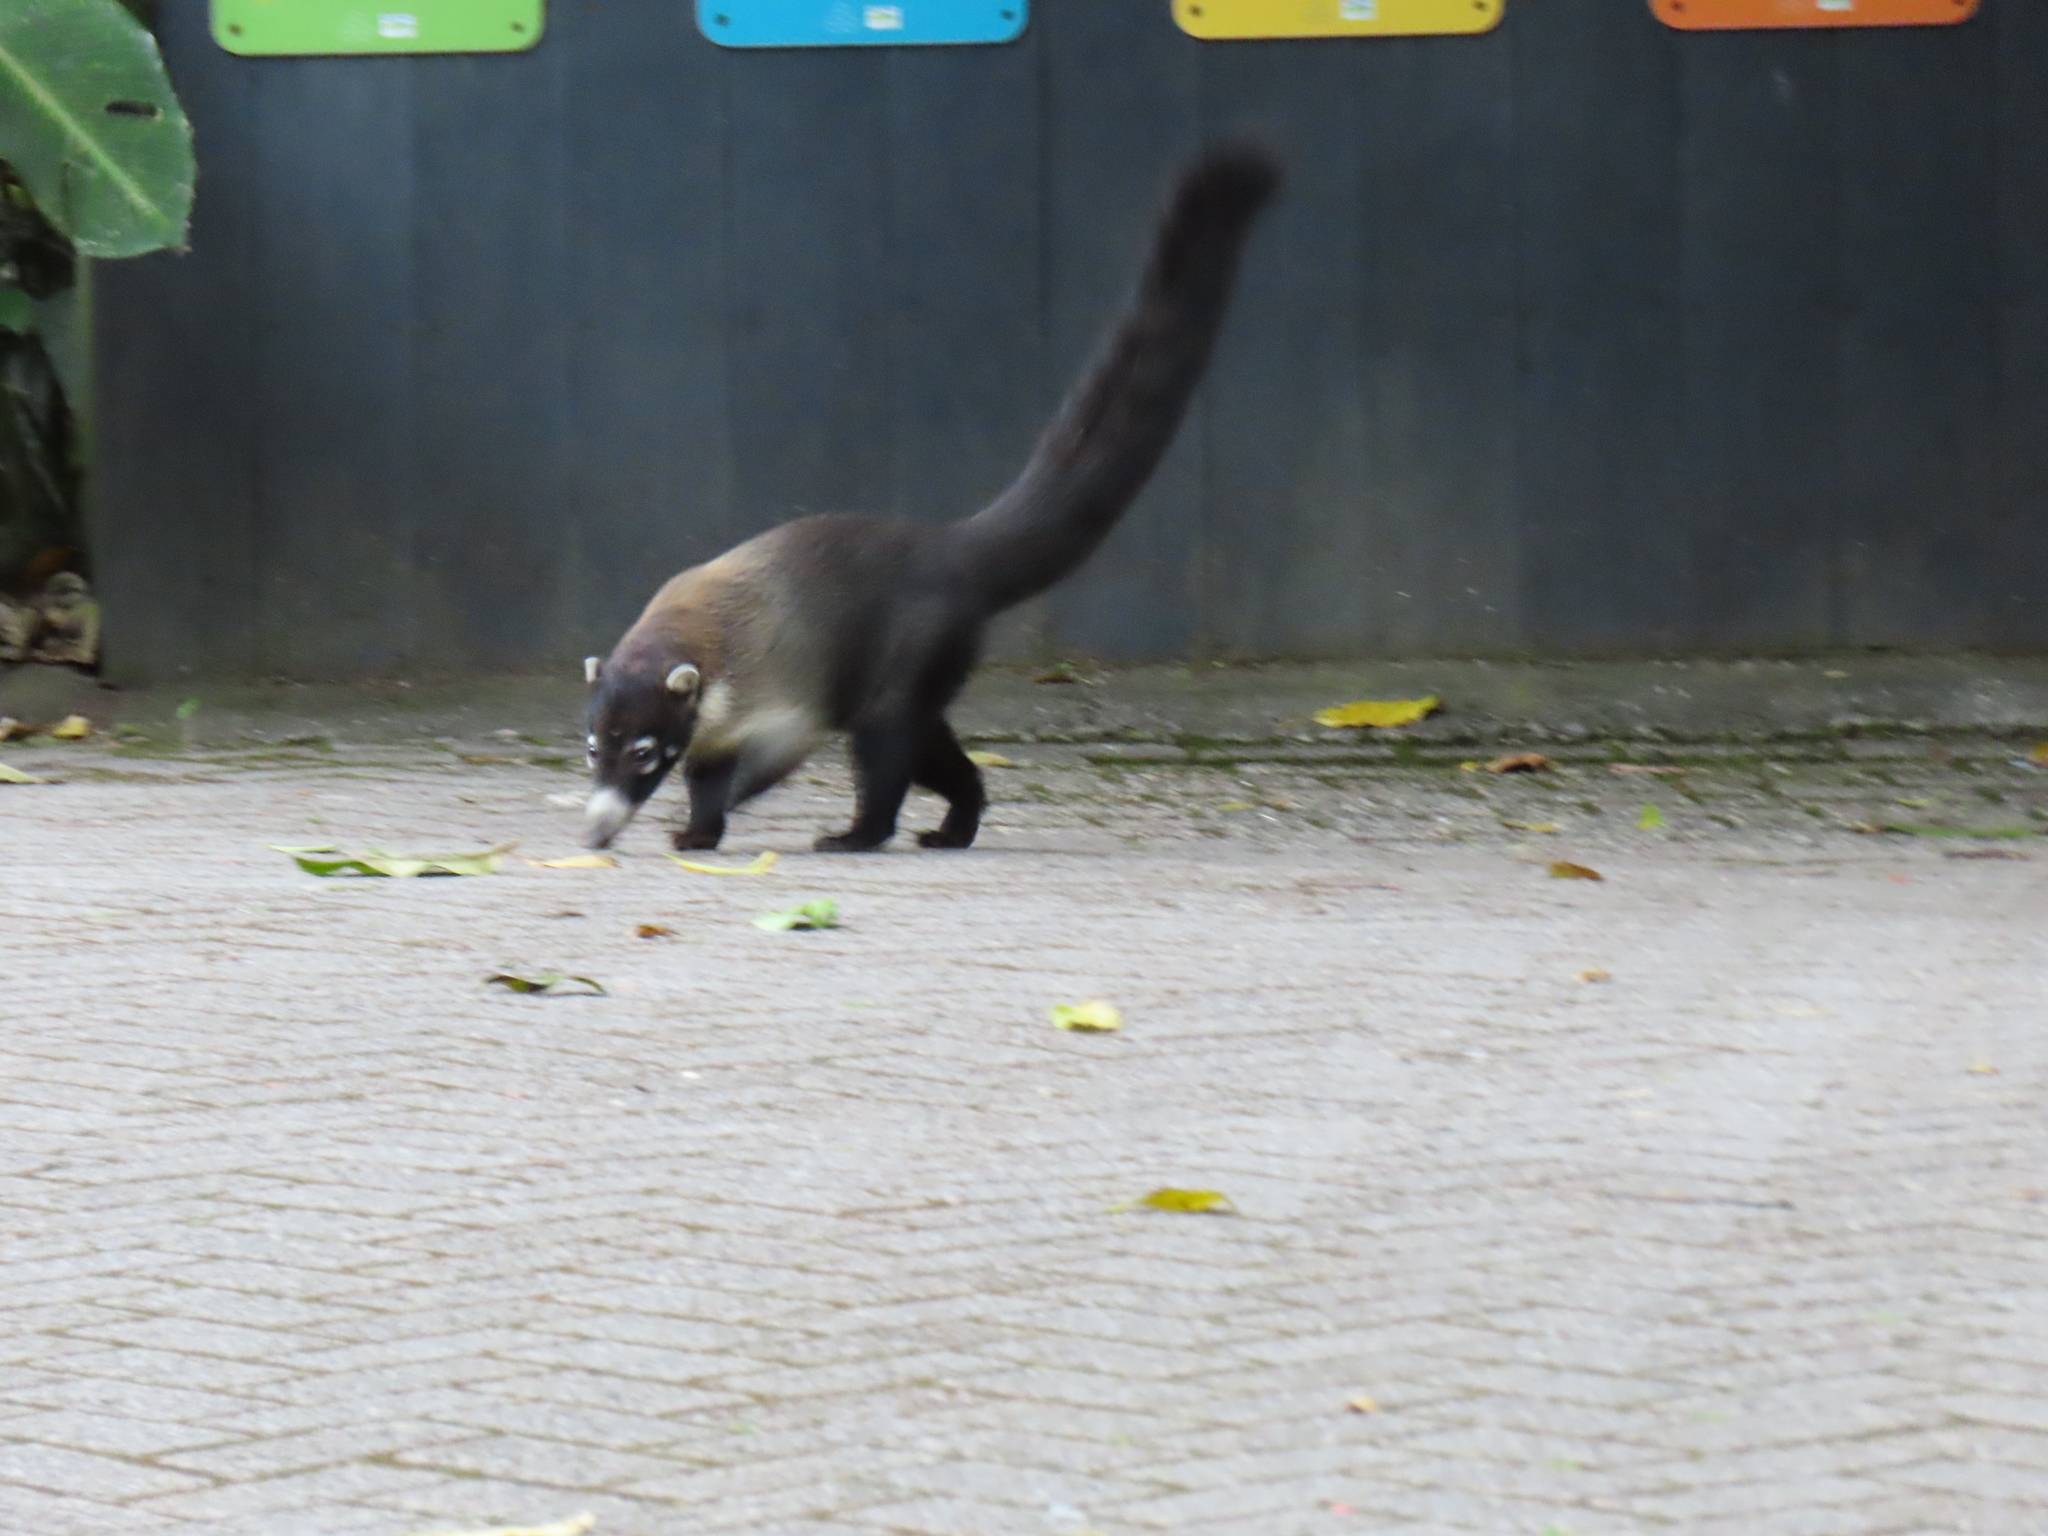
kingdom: Animalia
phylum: Chordata
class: Mammalia
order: Carnivora
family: Procyonidae
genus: Nasua
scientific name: Nasua narica
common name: White-nosed coati
